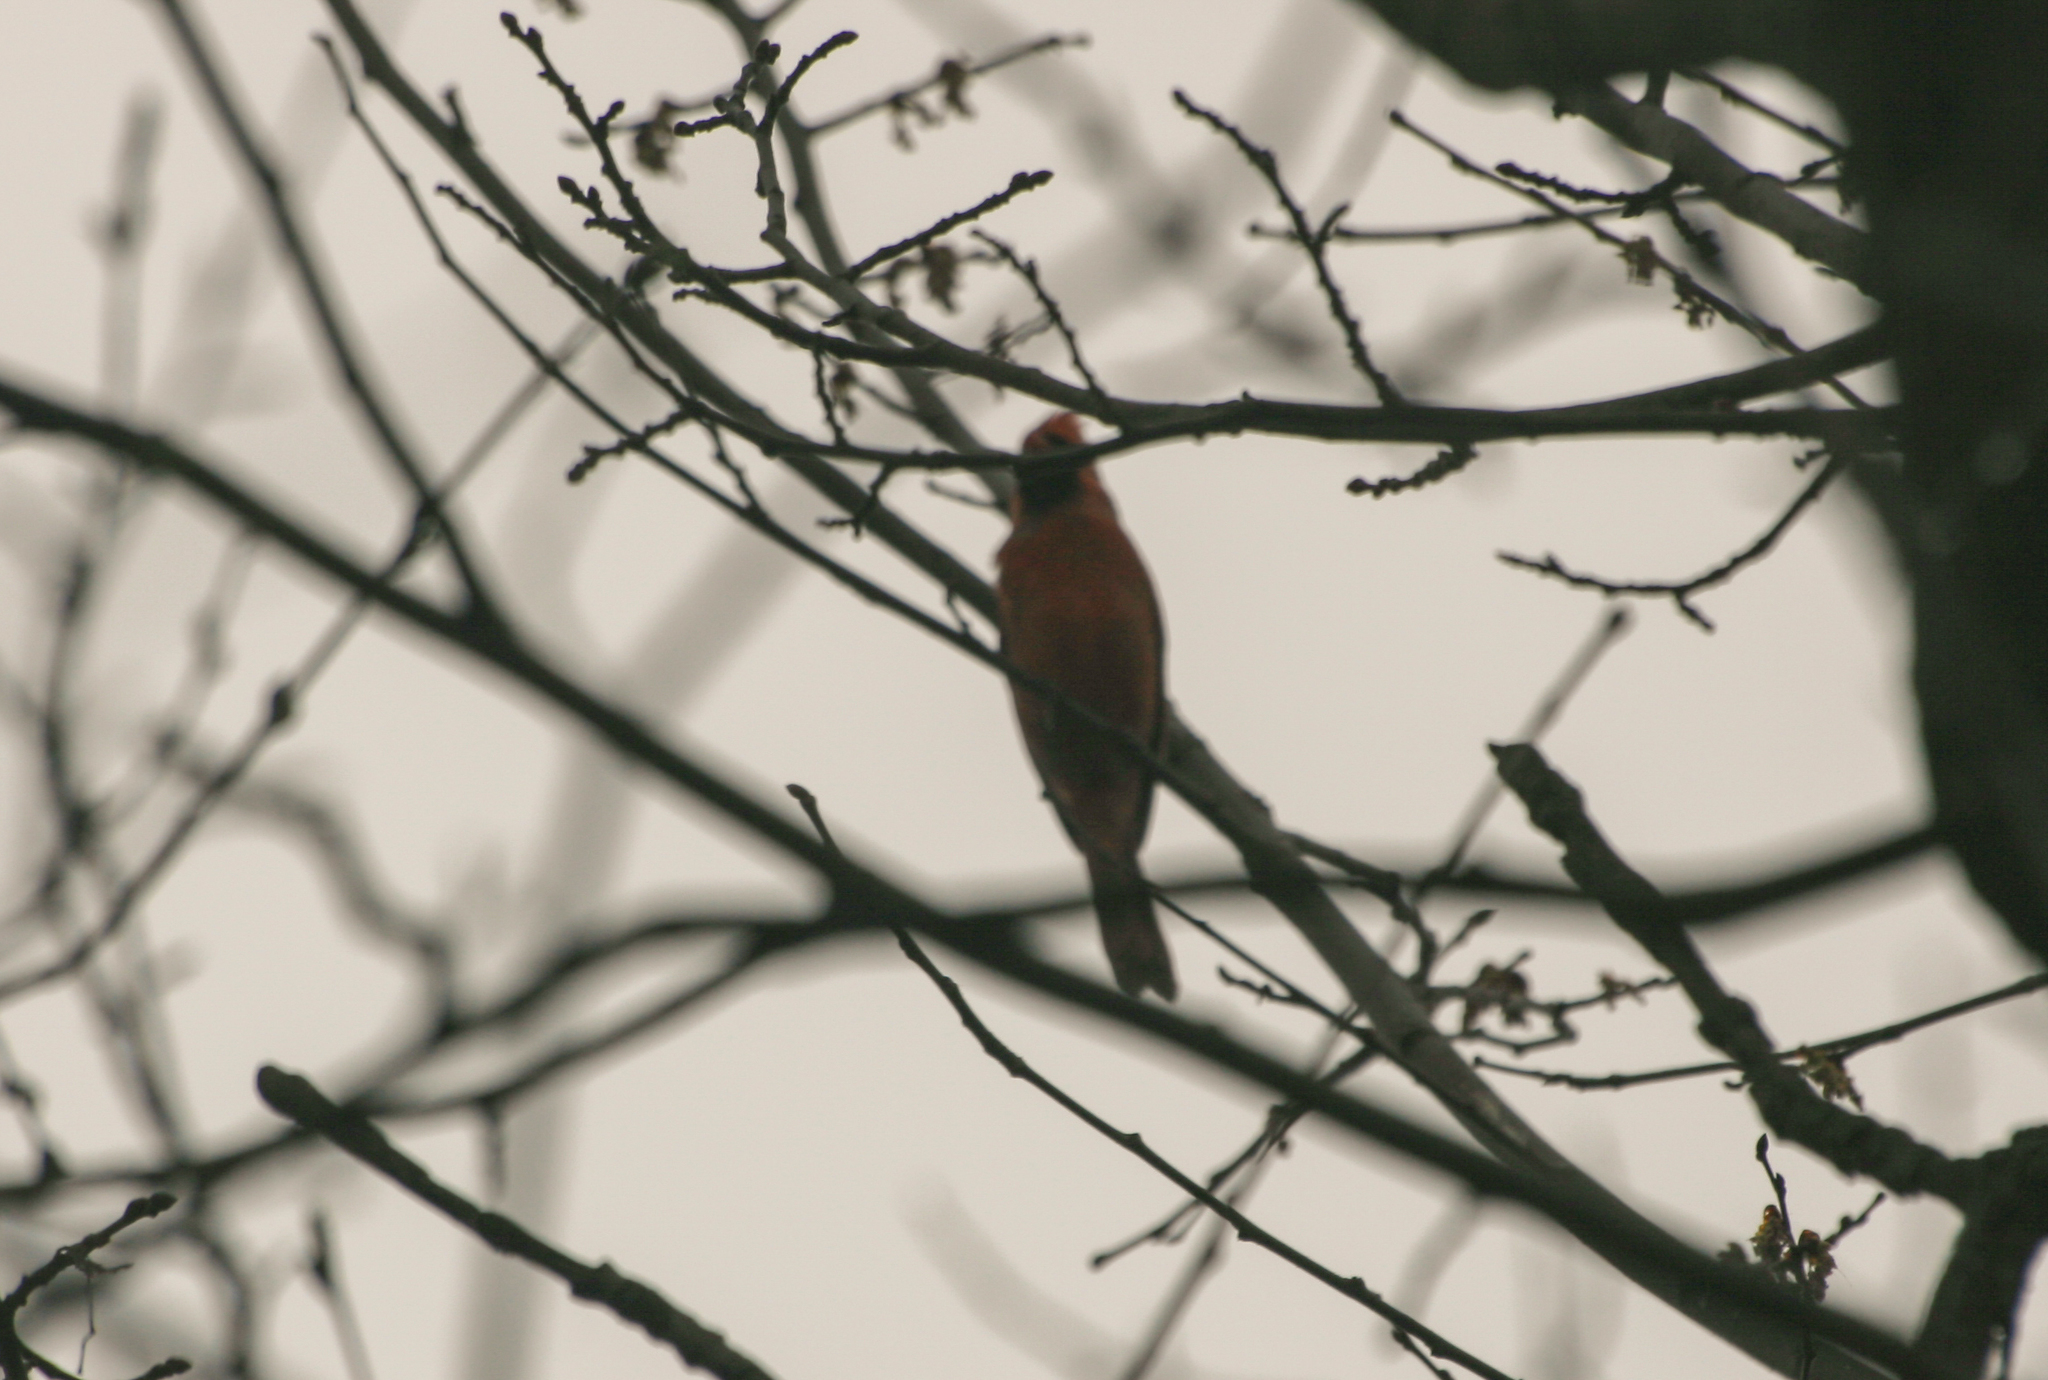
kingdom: Animalia
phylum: Chordata
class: Aves
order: Passeriformes
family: Cardinalidae
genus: Cardinalis
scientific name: Cardinalis cardinalis
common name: Northern cardinal
